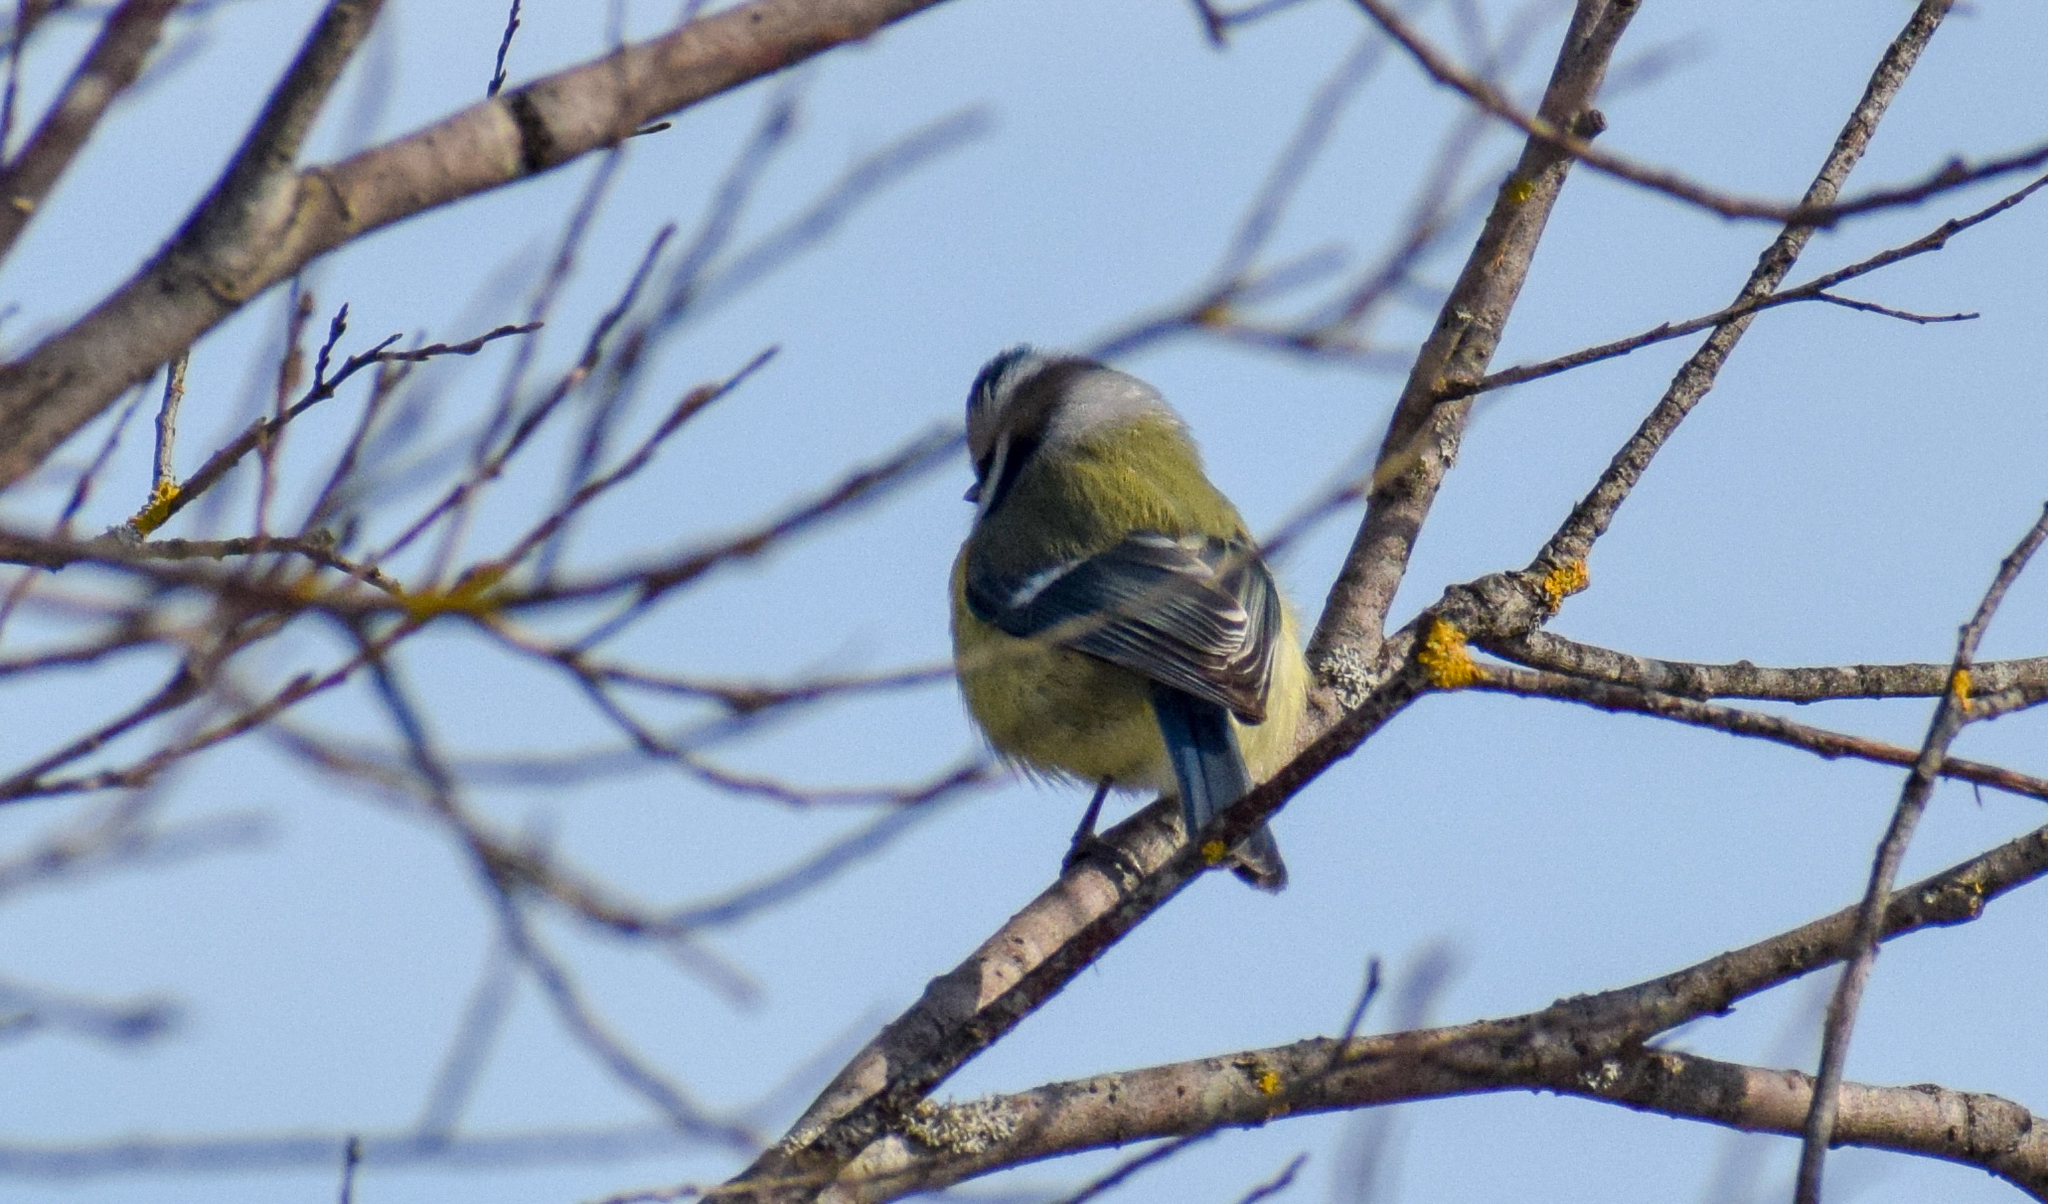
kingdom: Animalia
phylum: Chordata
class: Aves
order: Passeriformes
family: Paridae
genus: Cyanistes
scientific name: Cyanistes caeruleus
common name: Eurasian blue tit
